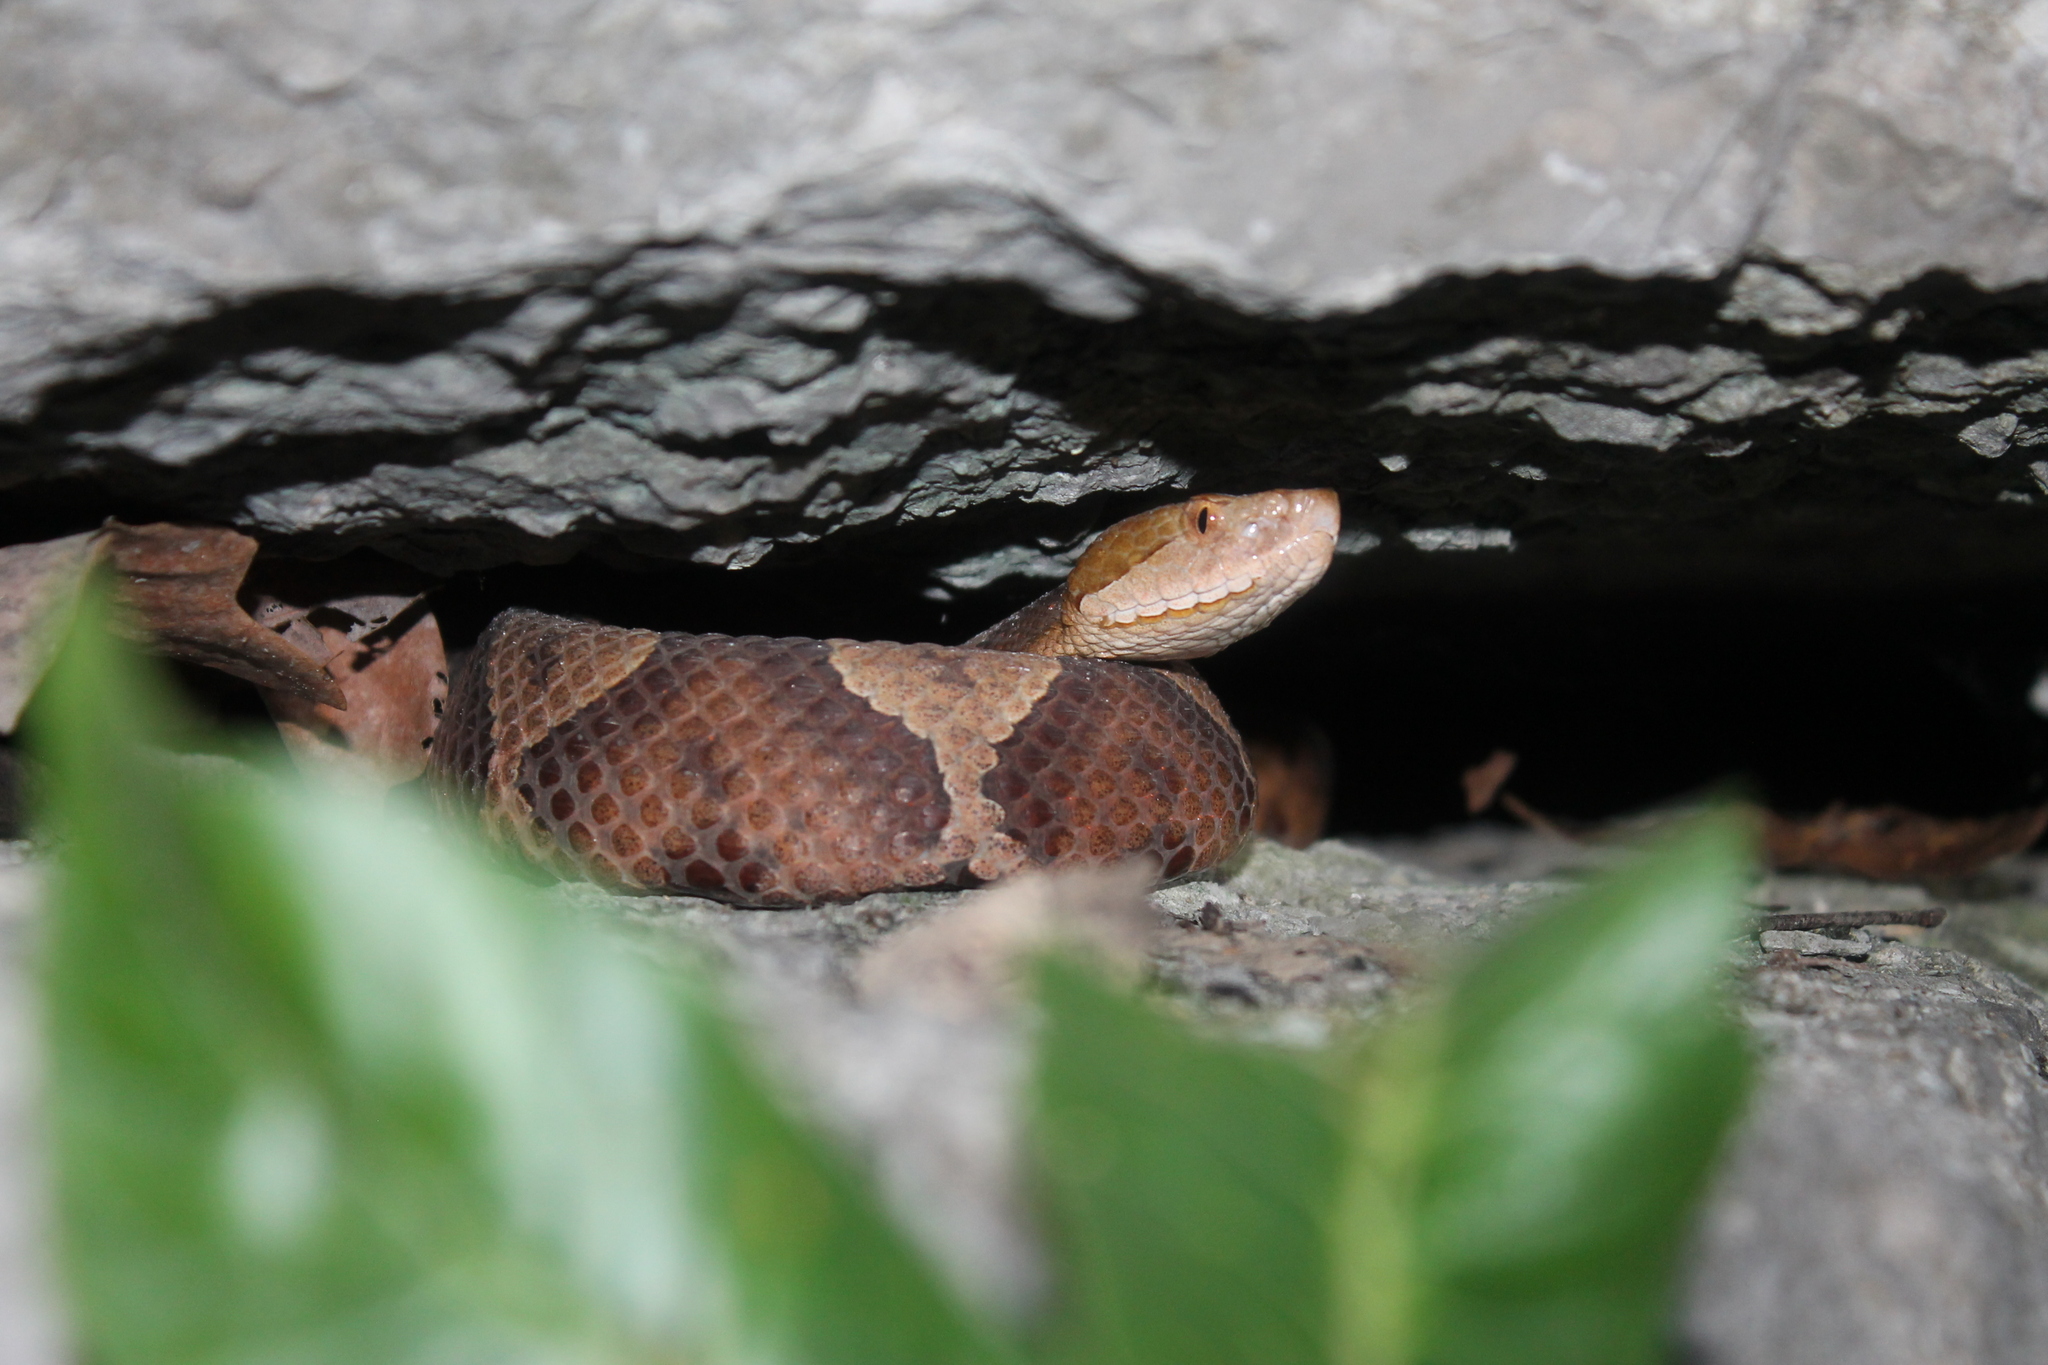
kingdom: Animalia
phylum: Chordata
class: Squamata
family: Viperidae
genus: Agkistrodon
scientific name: Agkistrodon contortrix
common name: Northern copperhead
